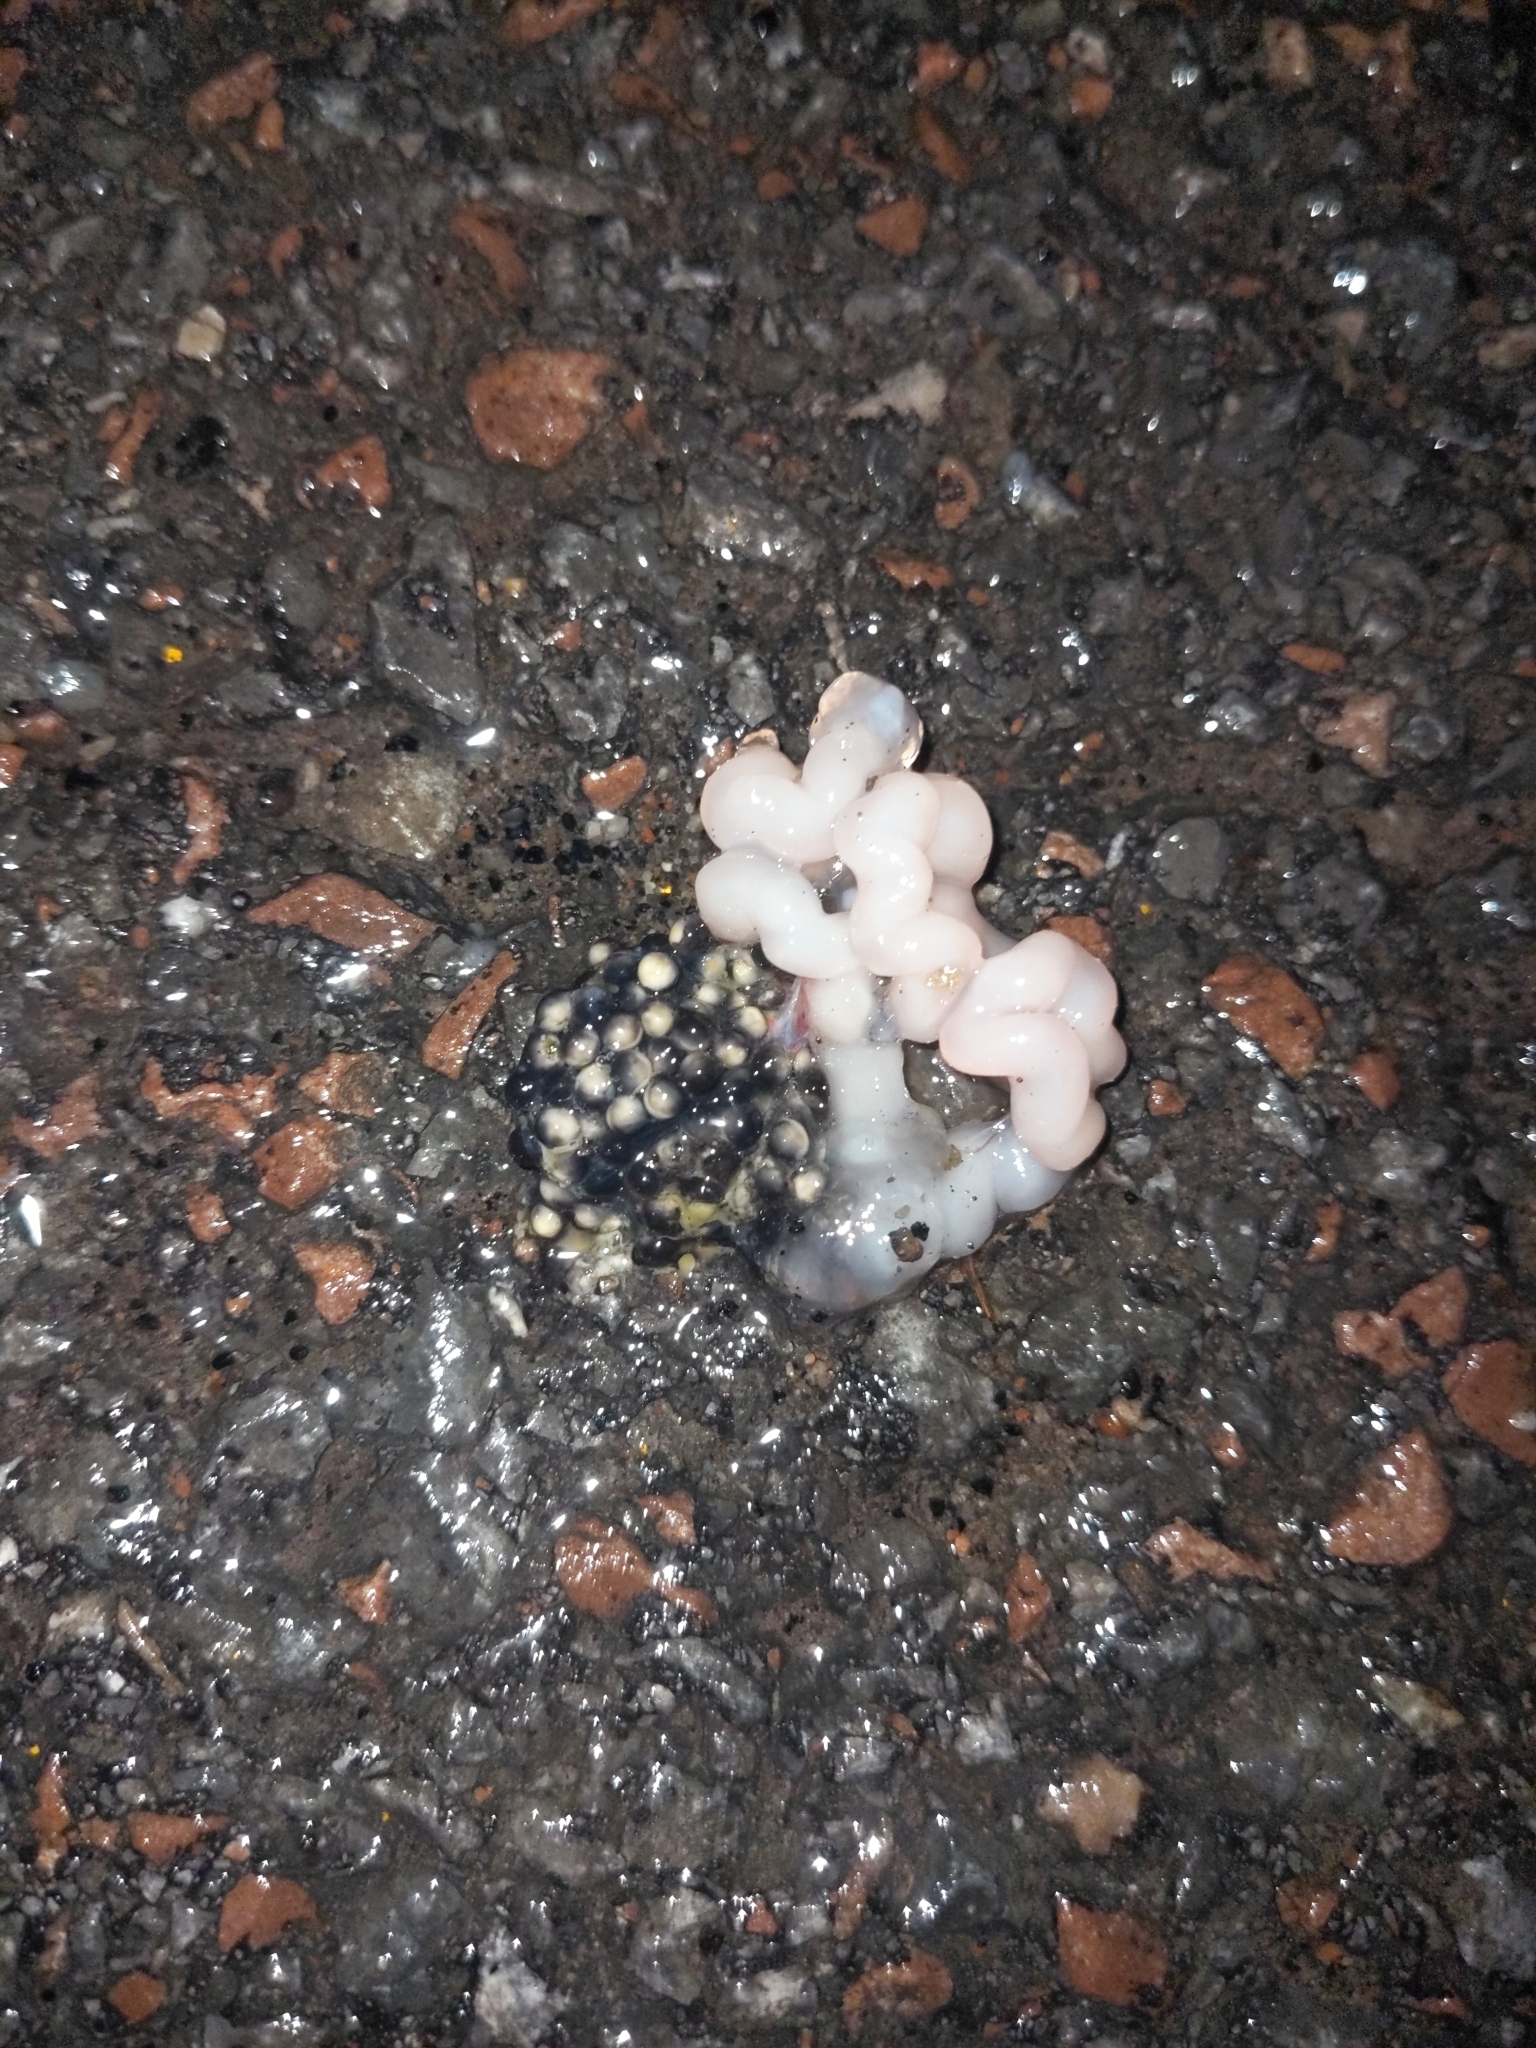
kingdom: Animalia
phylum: Chordata
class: Amphibia
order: Anura
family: Ranidae
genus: Lithobates
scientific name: Lithobates sylvaticus
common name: Wood frog
